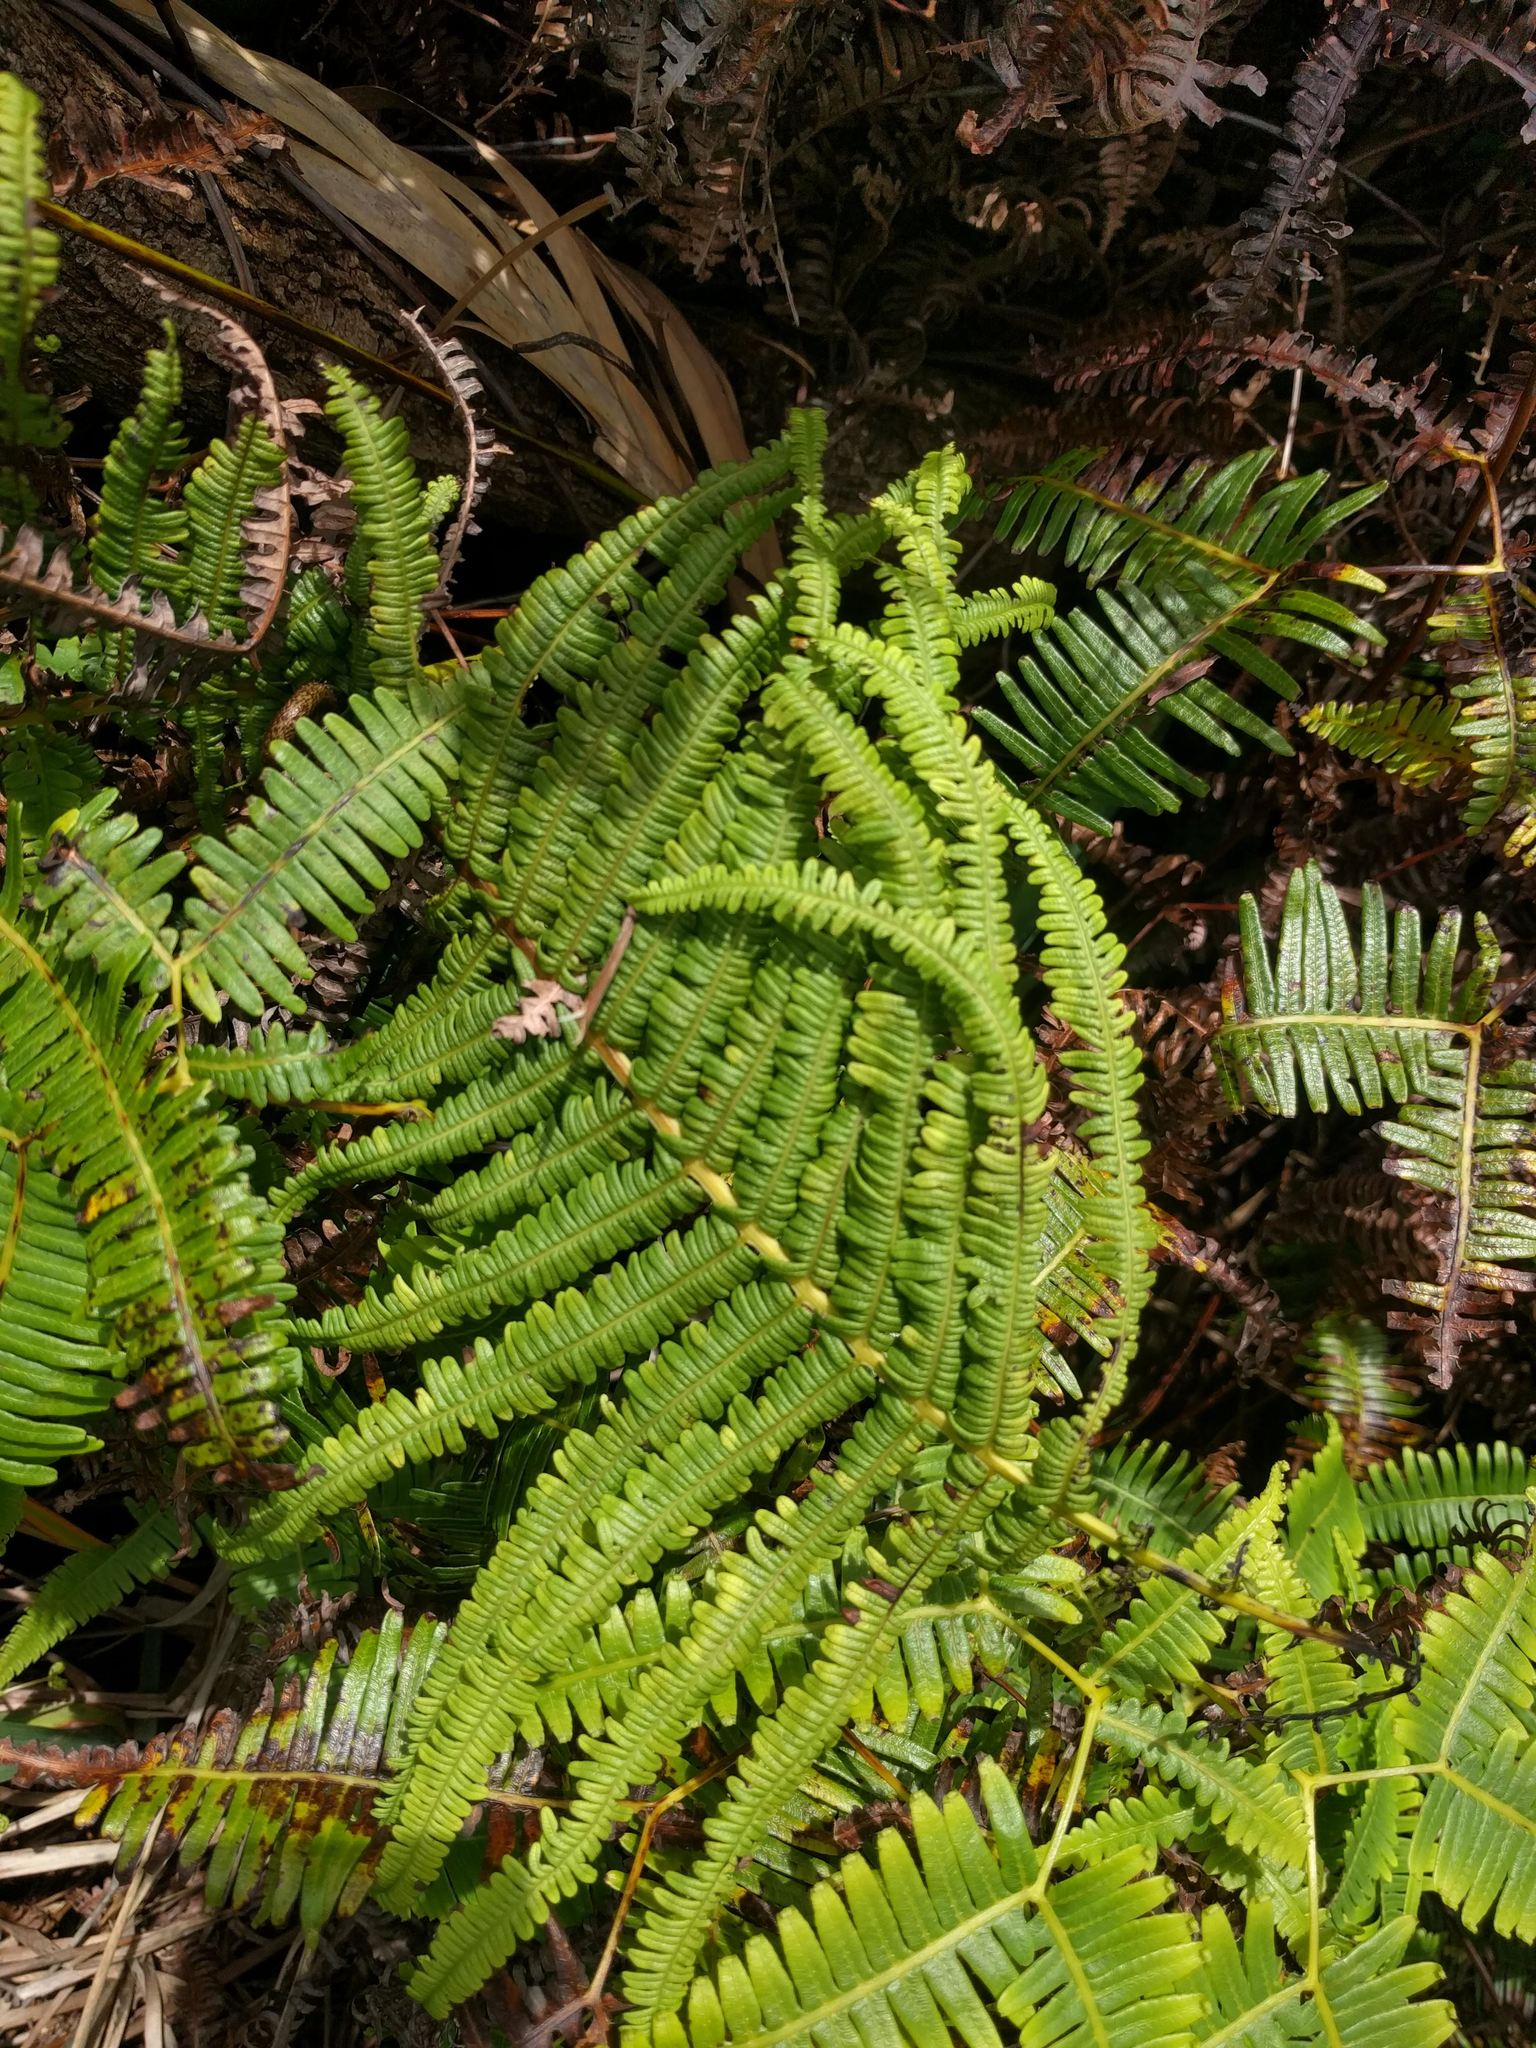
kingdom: Plantae
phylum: Tracheophyta
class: Polypodiopsida
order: Gleicheniales
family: Gleicheniaceae
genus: Diplopterygium
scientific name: Diplopterygium pinnatum
